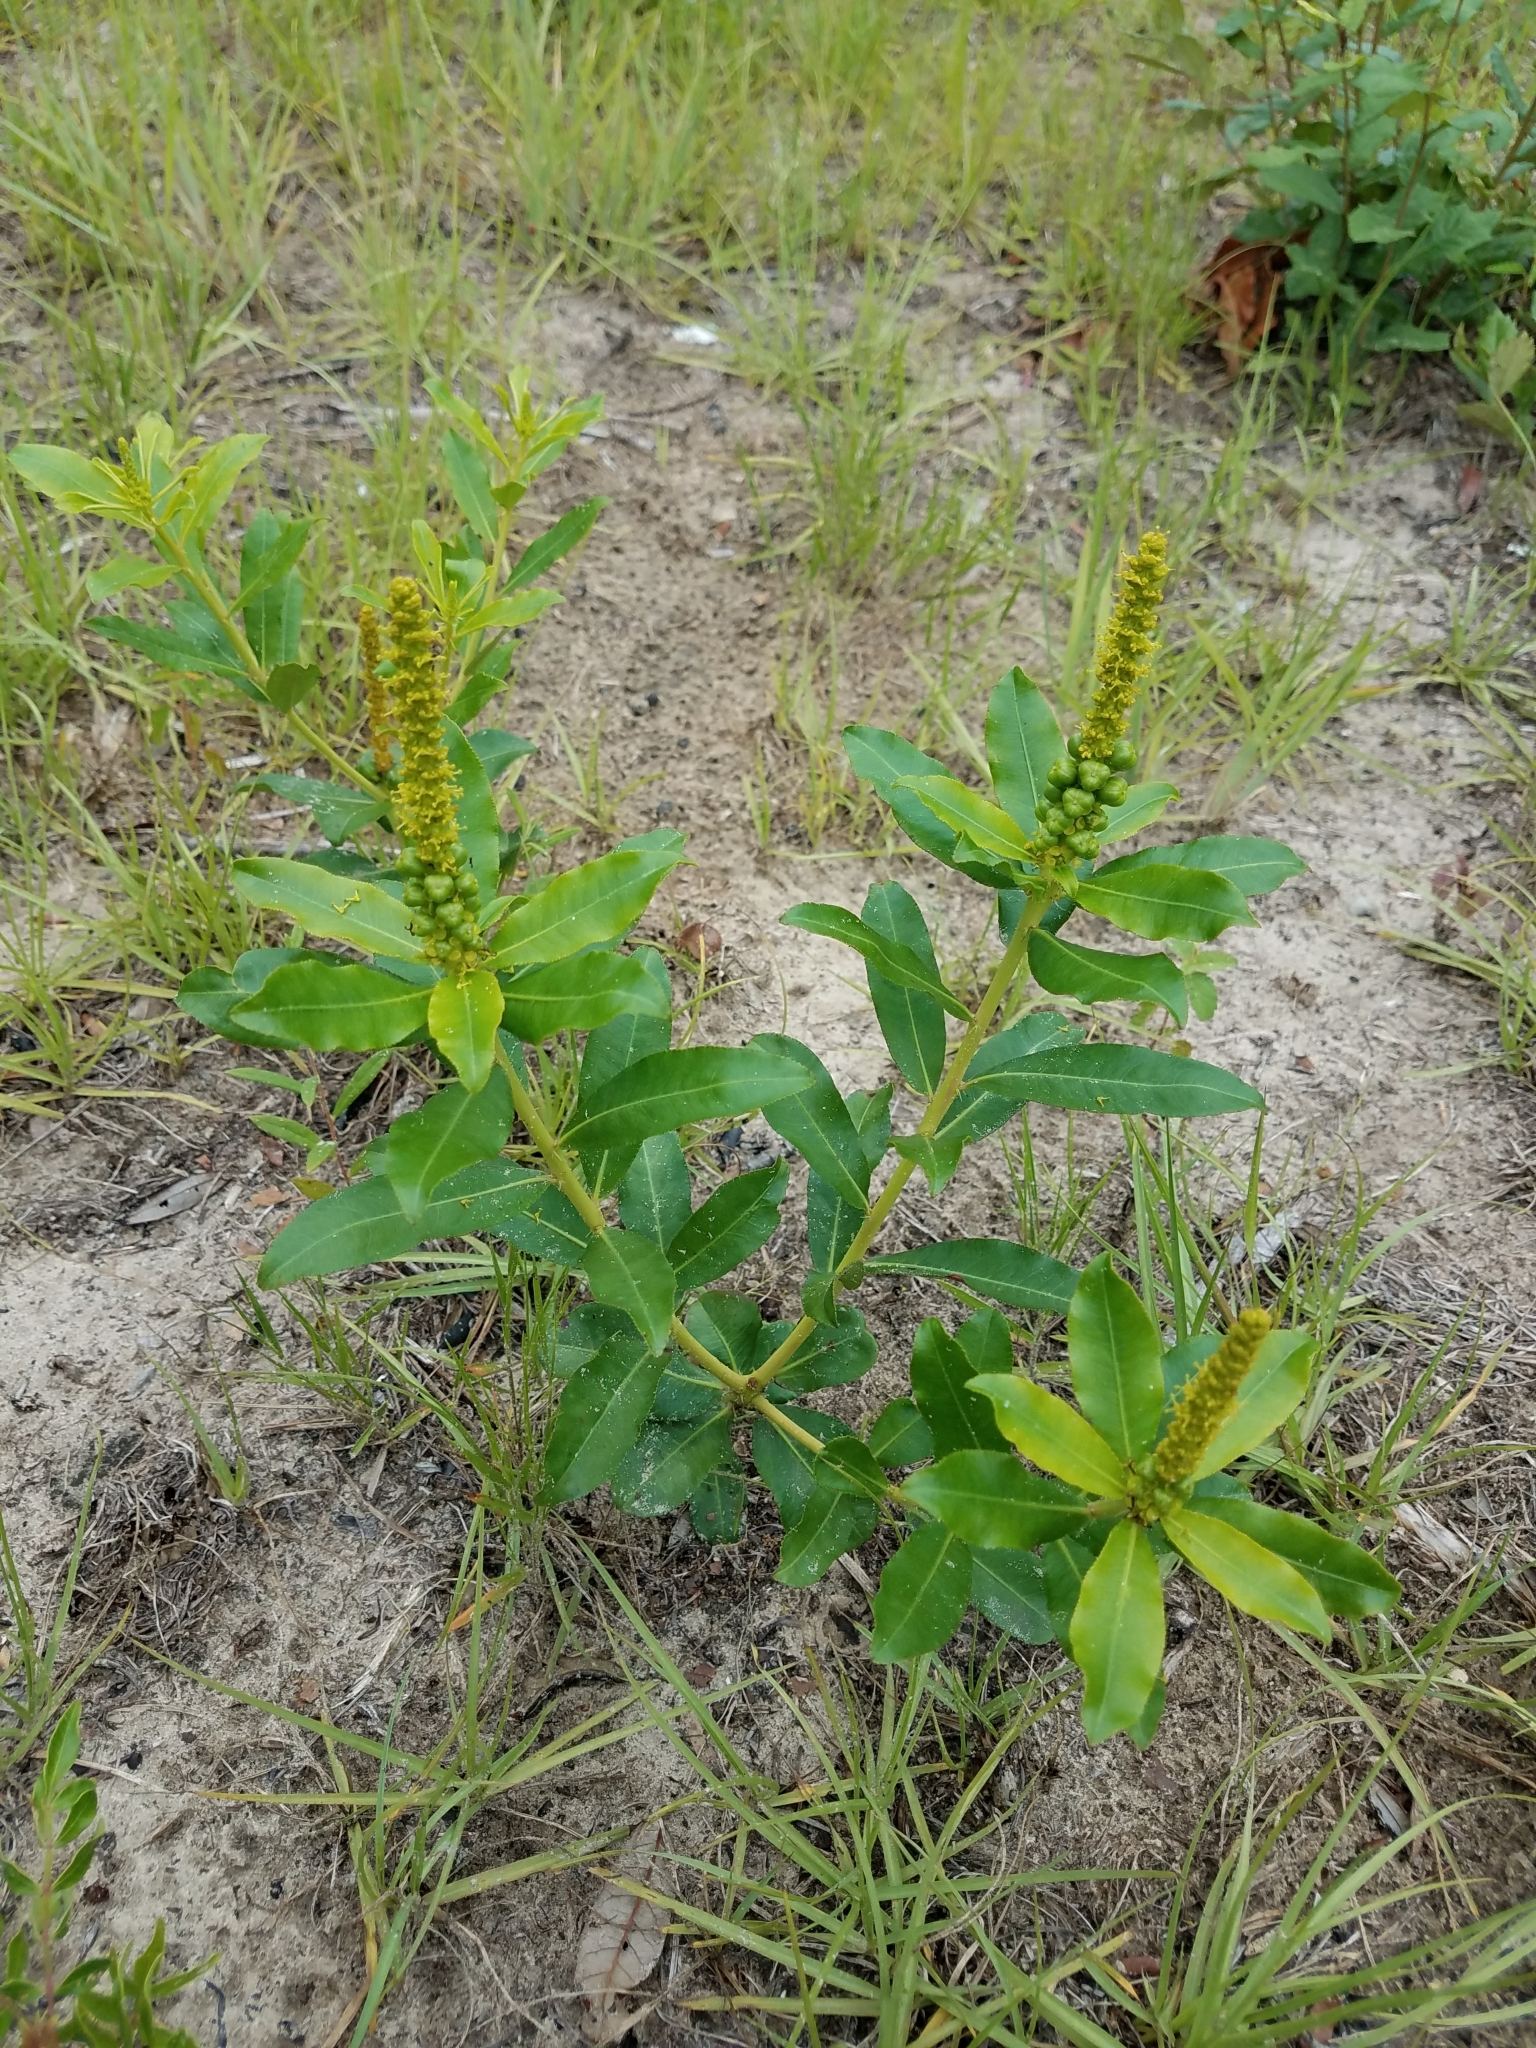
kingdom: Plantae
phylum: Tracheophyta
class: Magnoliopsida
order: Malpighiales
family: Euphorbiaceae
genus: Stillingia
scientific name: Stillingia sylvatica
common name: Queen's-delight
